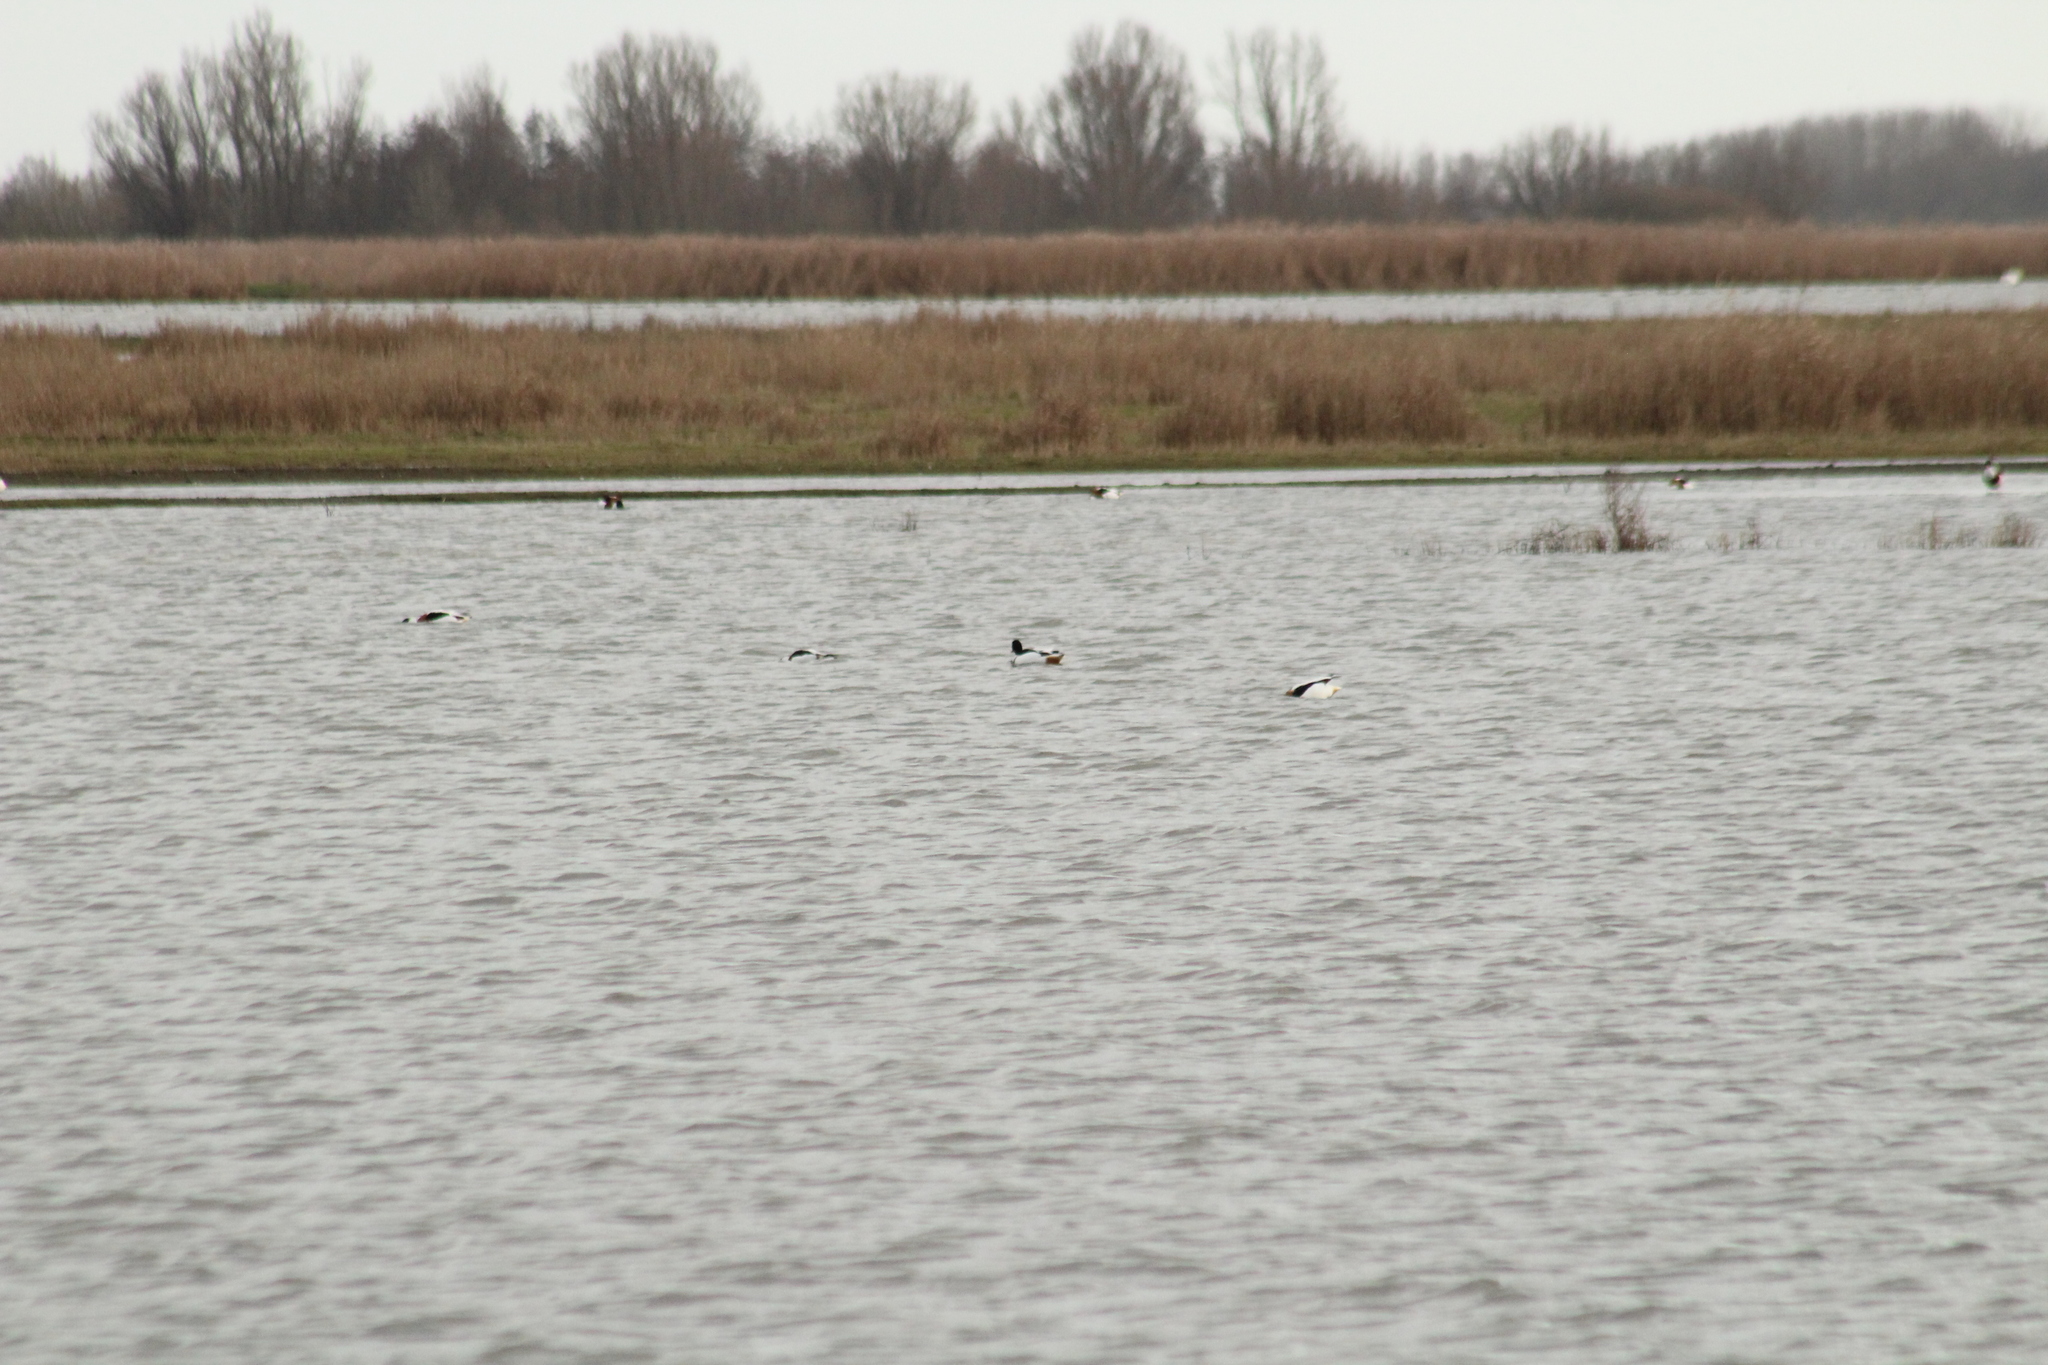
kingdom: Animalia
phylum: Chordata
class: Aves
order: Anseriformes
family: Anatidae
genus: Tadorna
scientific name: Tadorna tadorna
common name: Common shelduck
